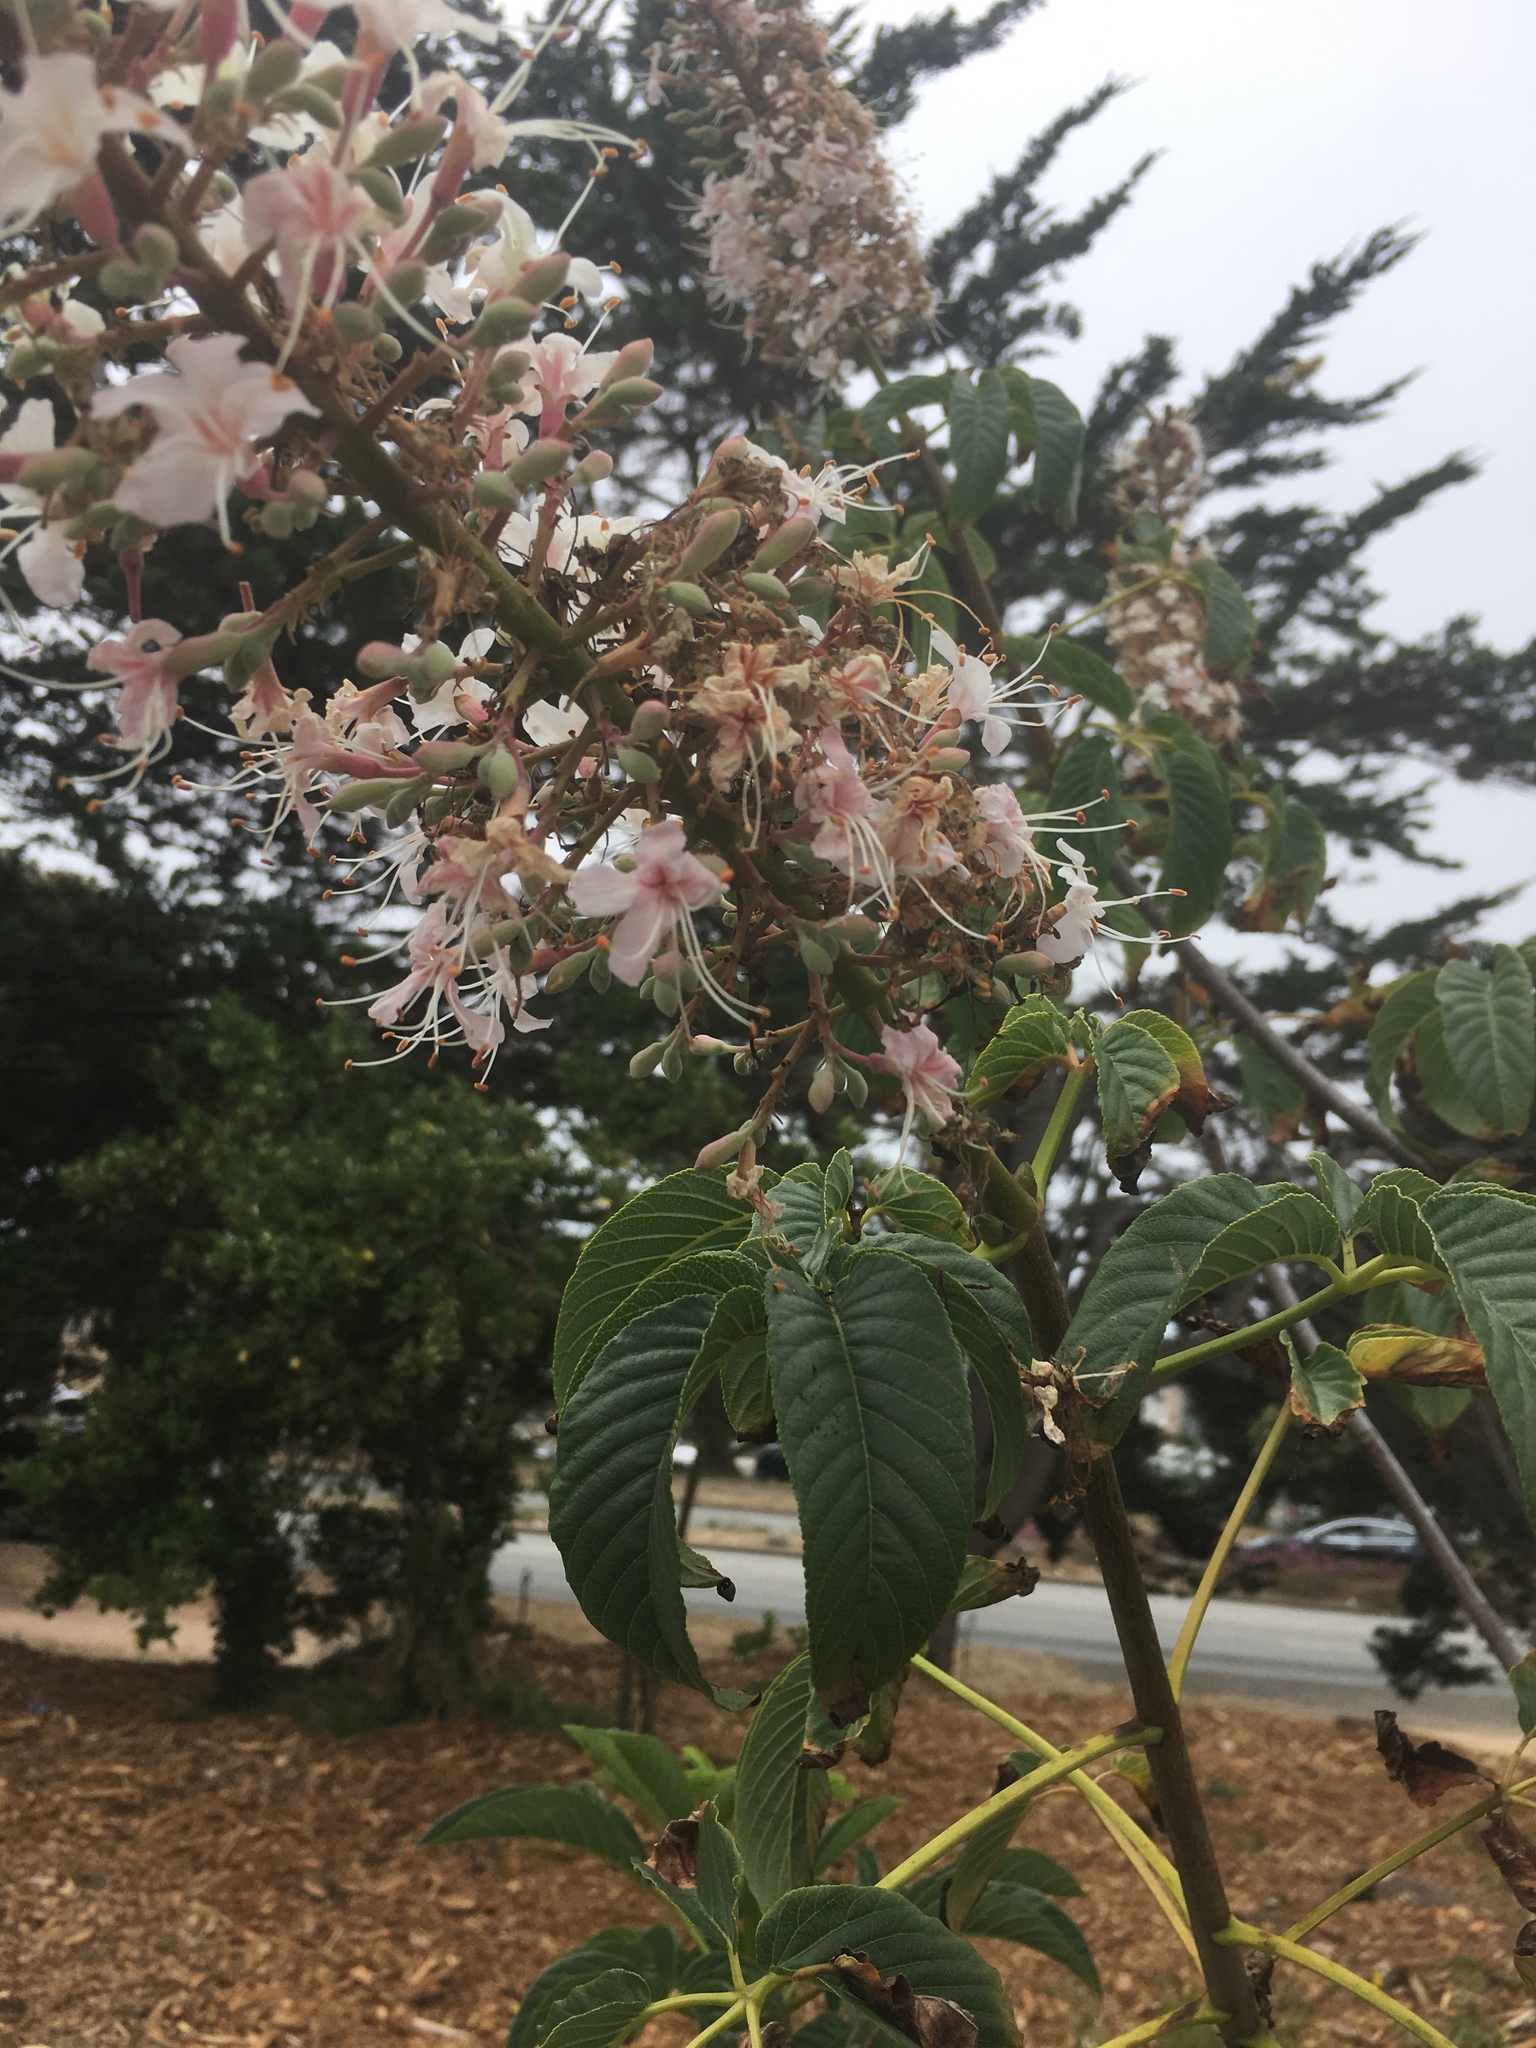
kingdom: Plantae
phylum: Tracheophyta
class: Magnoliopsida
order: Sapindales
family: Sapindaceae
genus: Aesculus
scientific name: Aesculus californica
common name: California buckeye
